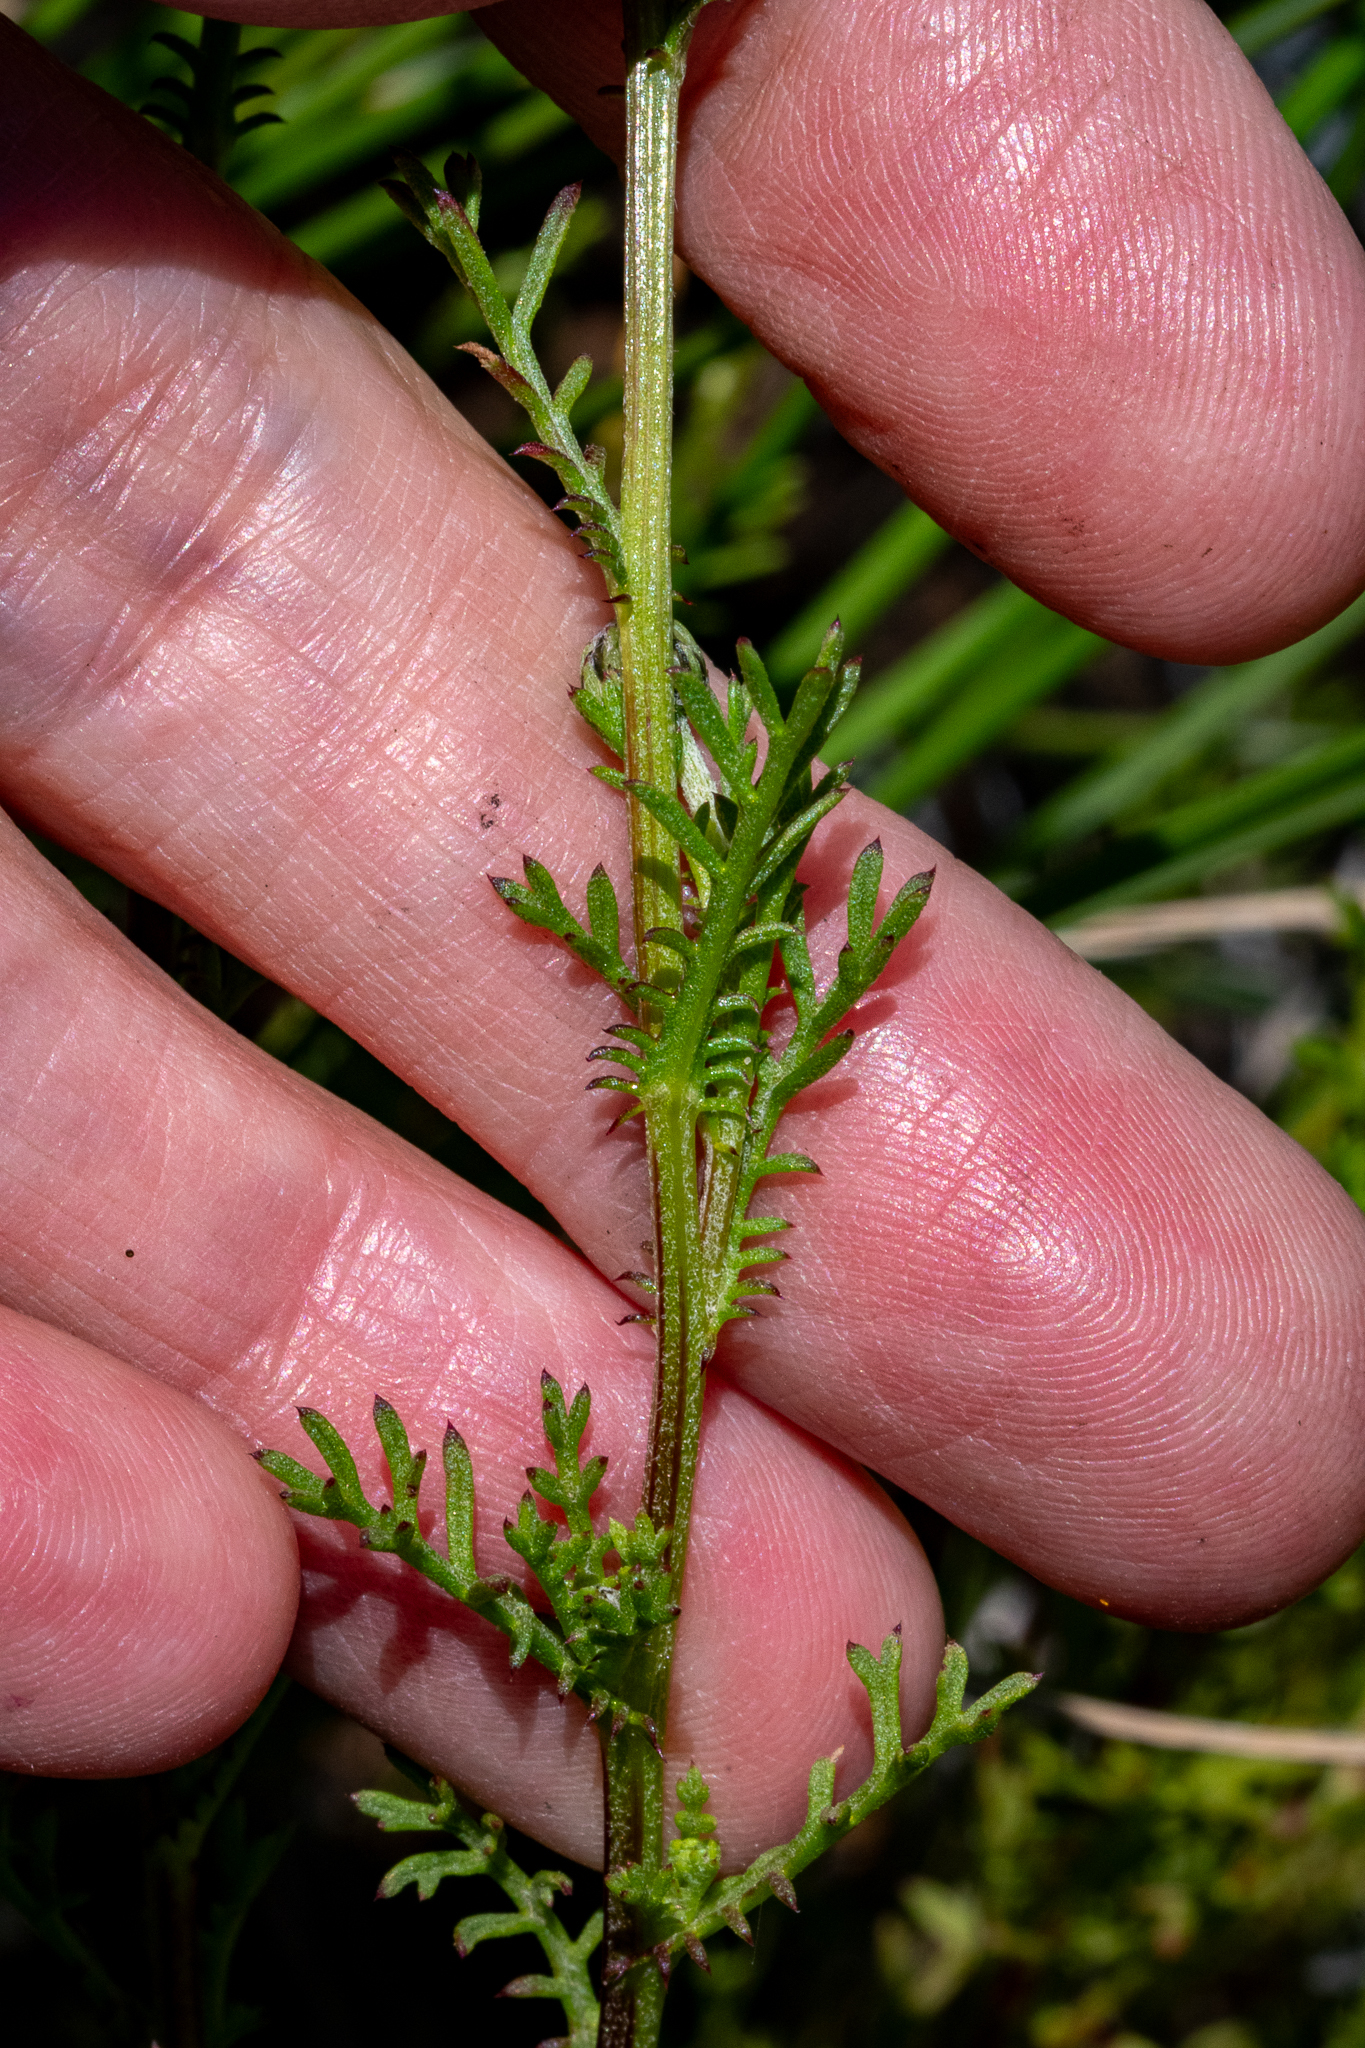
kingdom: Plantae
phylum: Tracheophyta
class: Magnoliopsida
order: Asterales
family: Asteraceae
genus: Ursinia
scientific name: Ursinia anthemoides
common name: Ursinia
